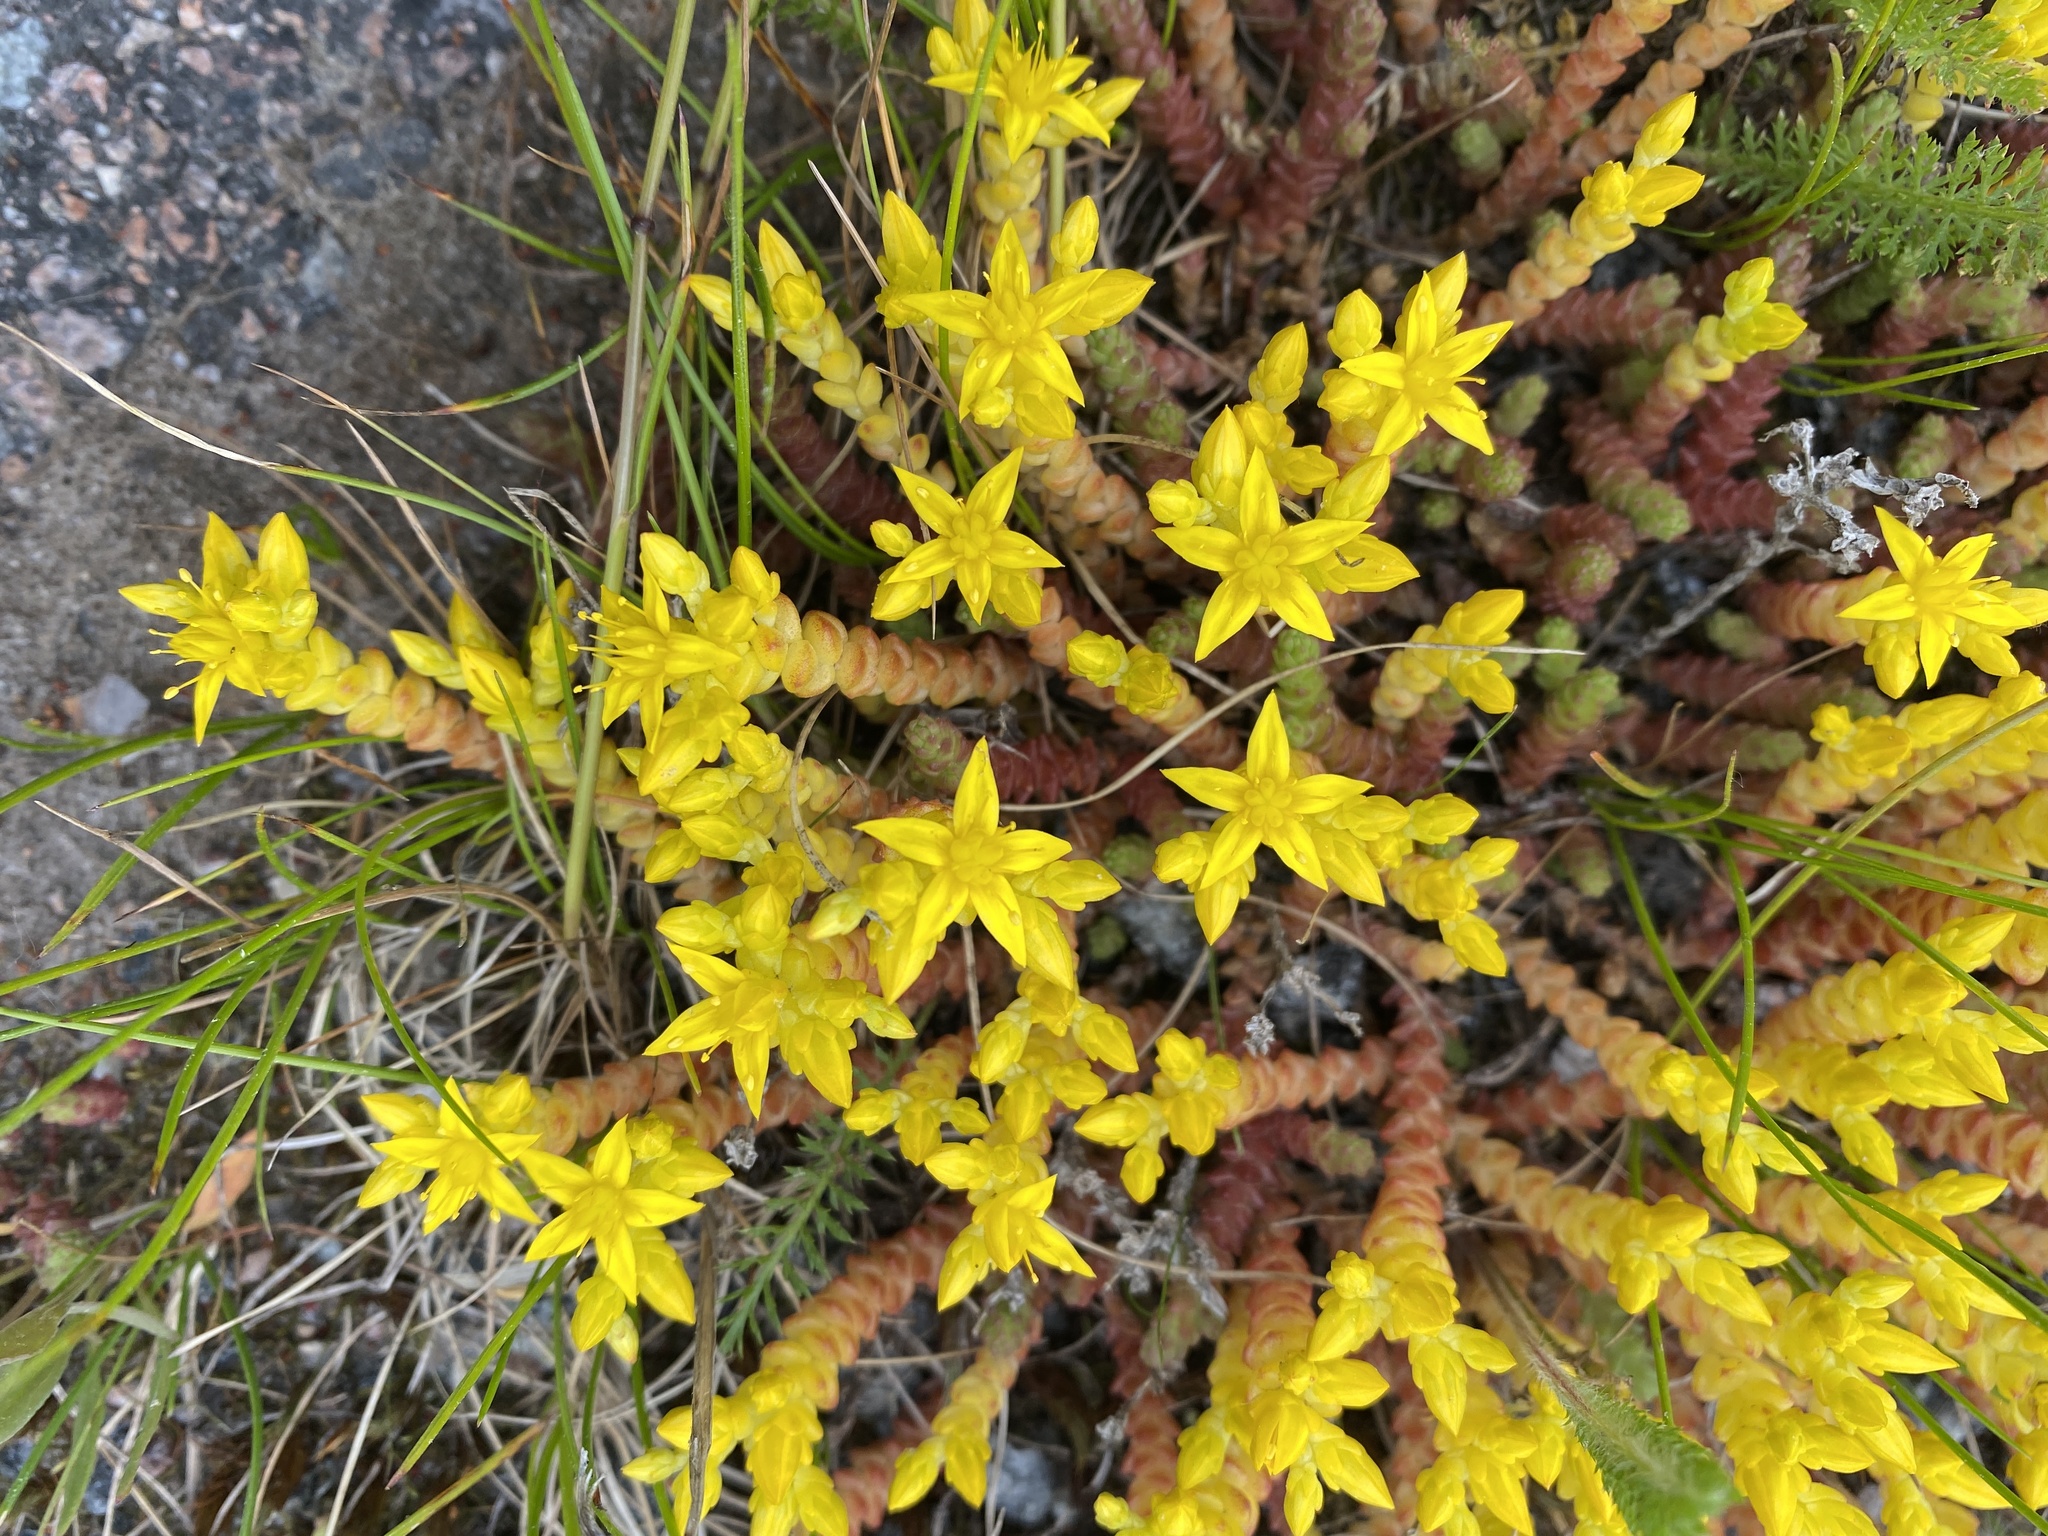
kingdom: Plantae
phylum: Tracheophyta
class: Magnoliopsida
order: Saxifragales
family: Crassulaceae
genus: Sedum
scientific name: Sedum acre
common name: Biting stonecrop
